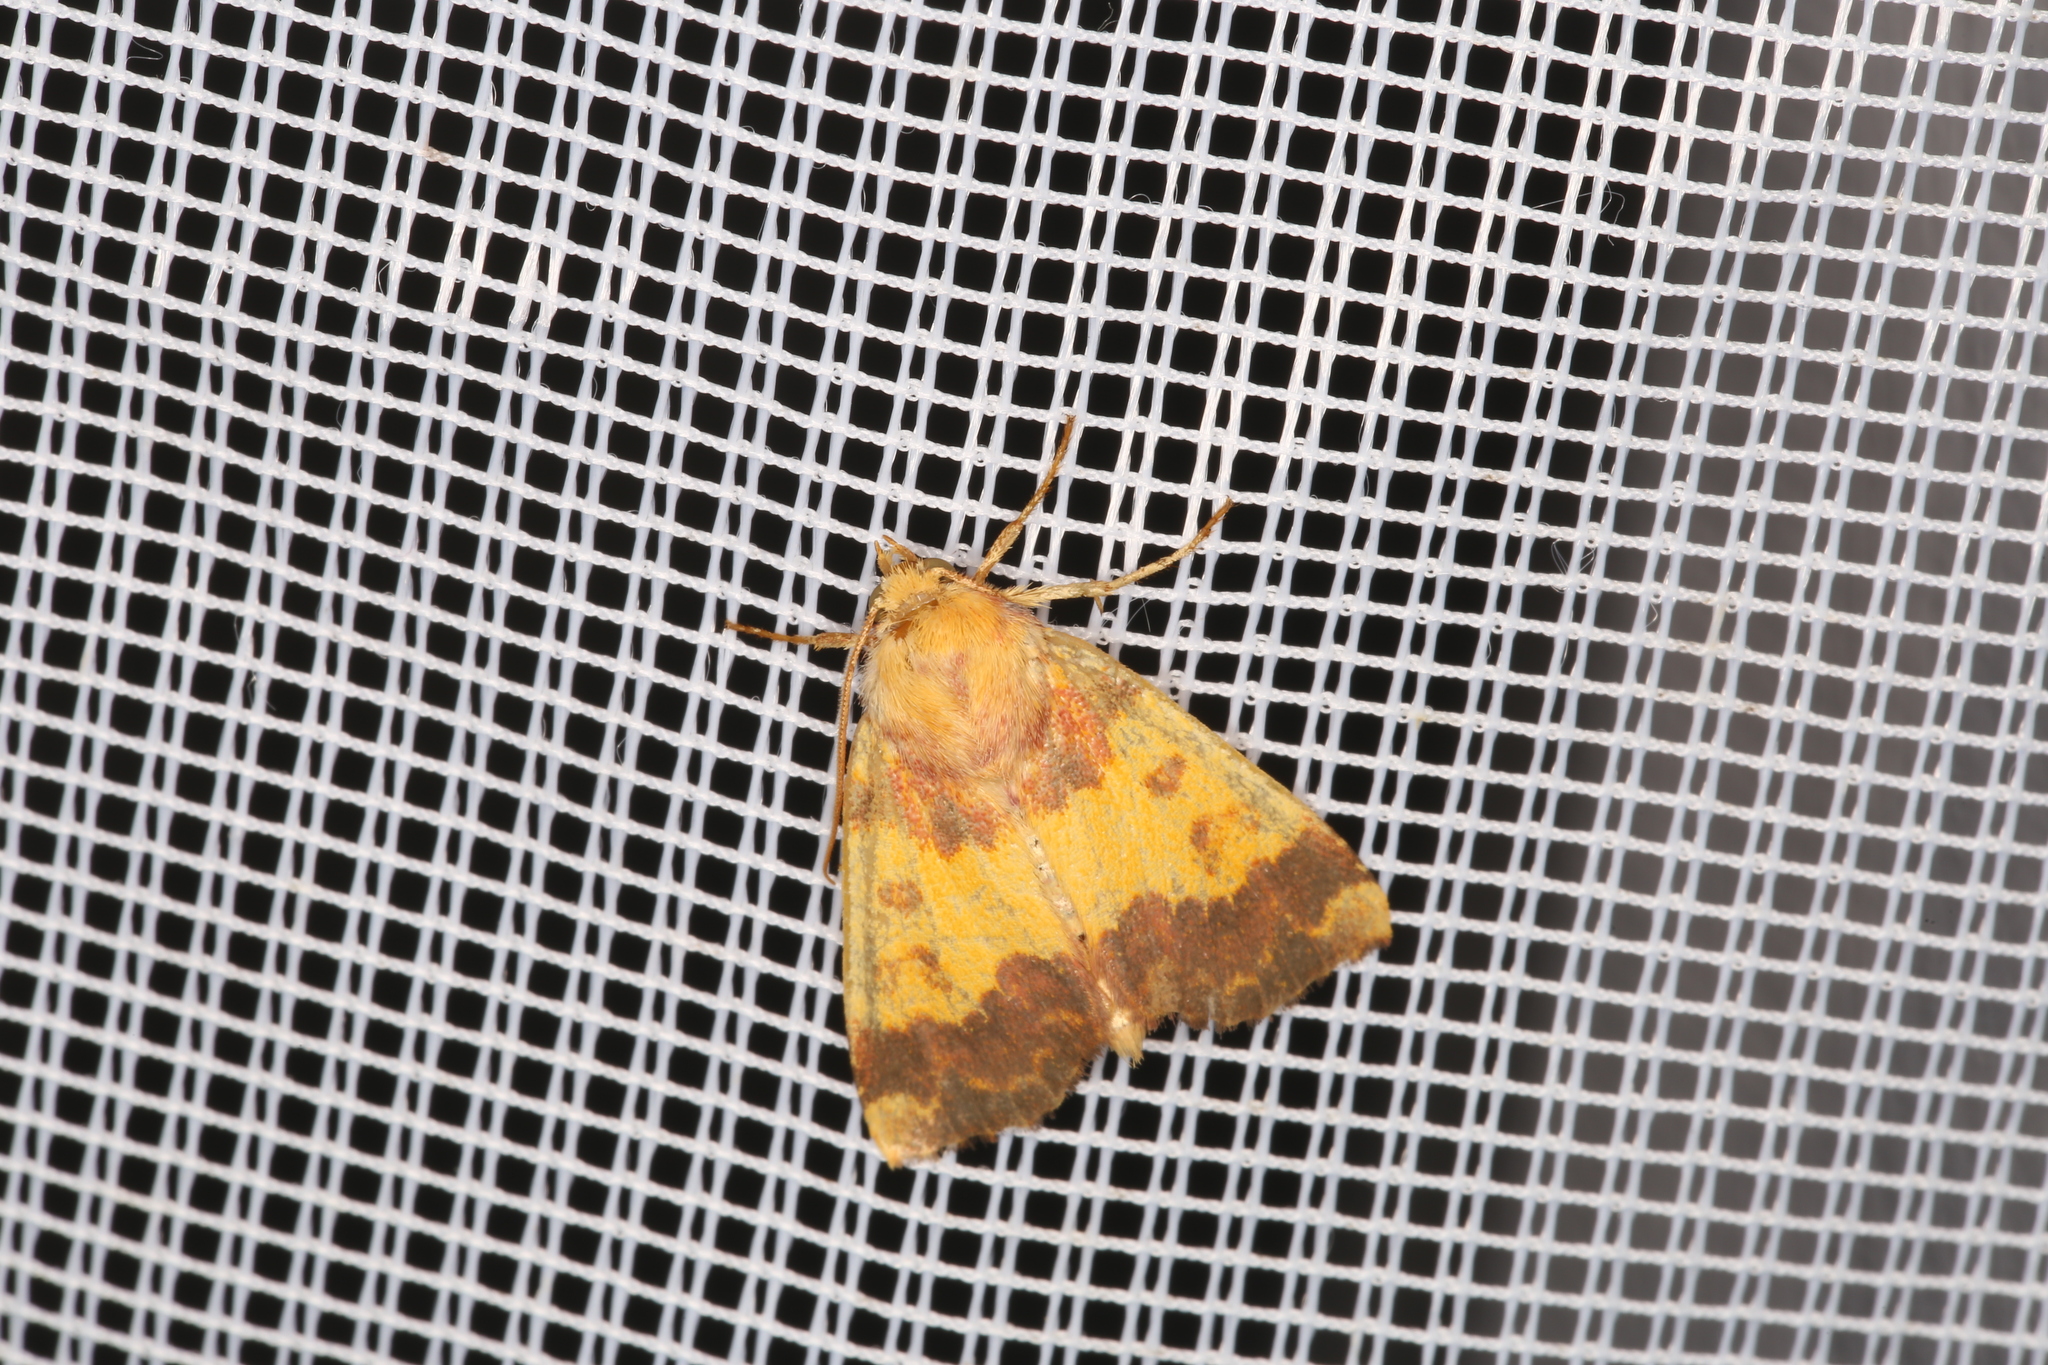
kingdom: Animalia
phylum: Arthropoda
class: Insecta
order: Lepidoptera
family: Noctuidae
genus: Tiliacea
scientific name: Tiliacea aurago
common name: Barred sallow
